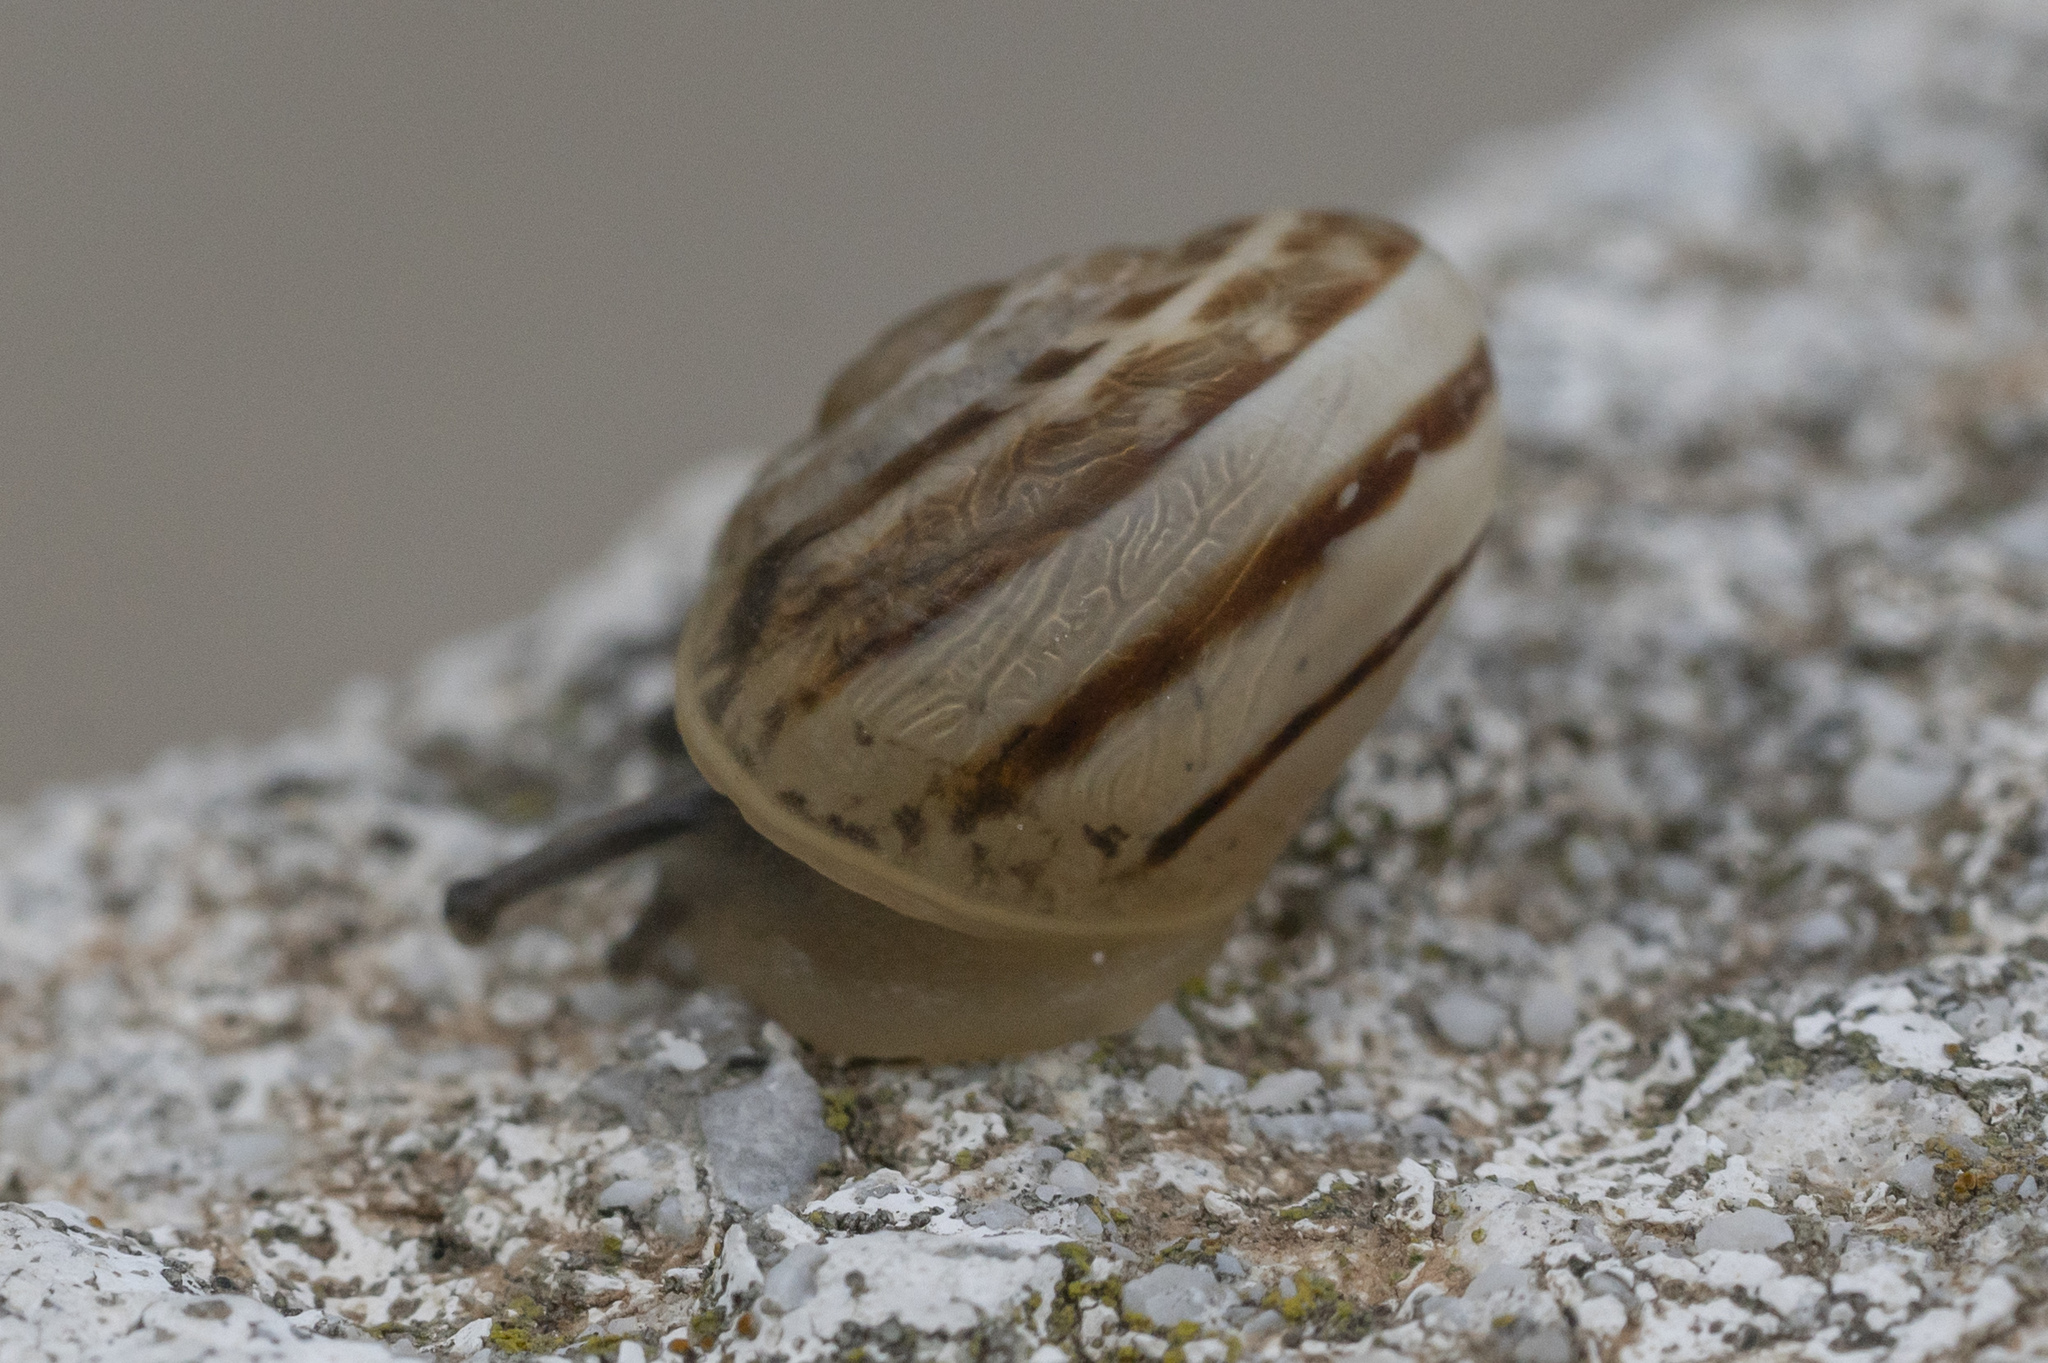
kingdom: Animalia
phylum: Mollusca
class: Gastropoda
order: Stylommatophora
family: Helicidae
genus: Eobania
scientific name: Eobania vermiculata
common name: Chocolateband snail
